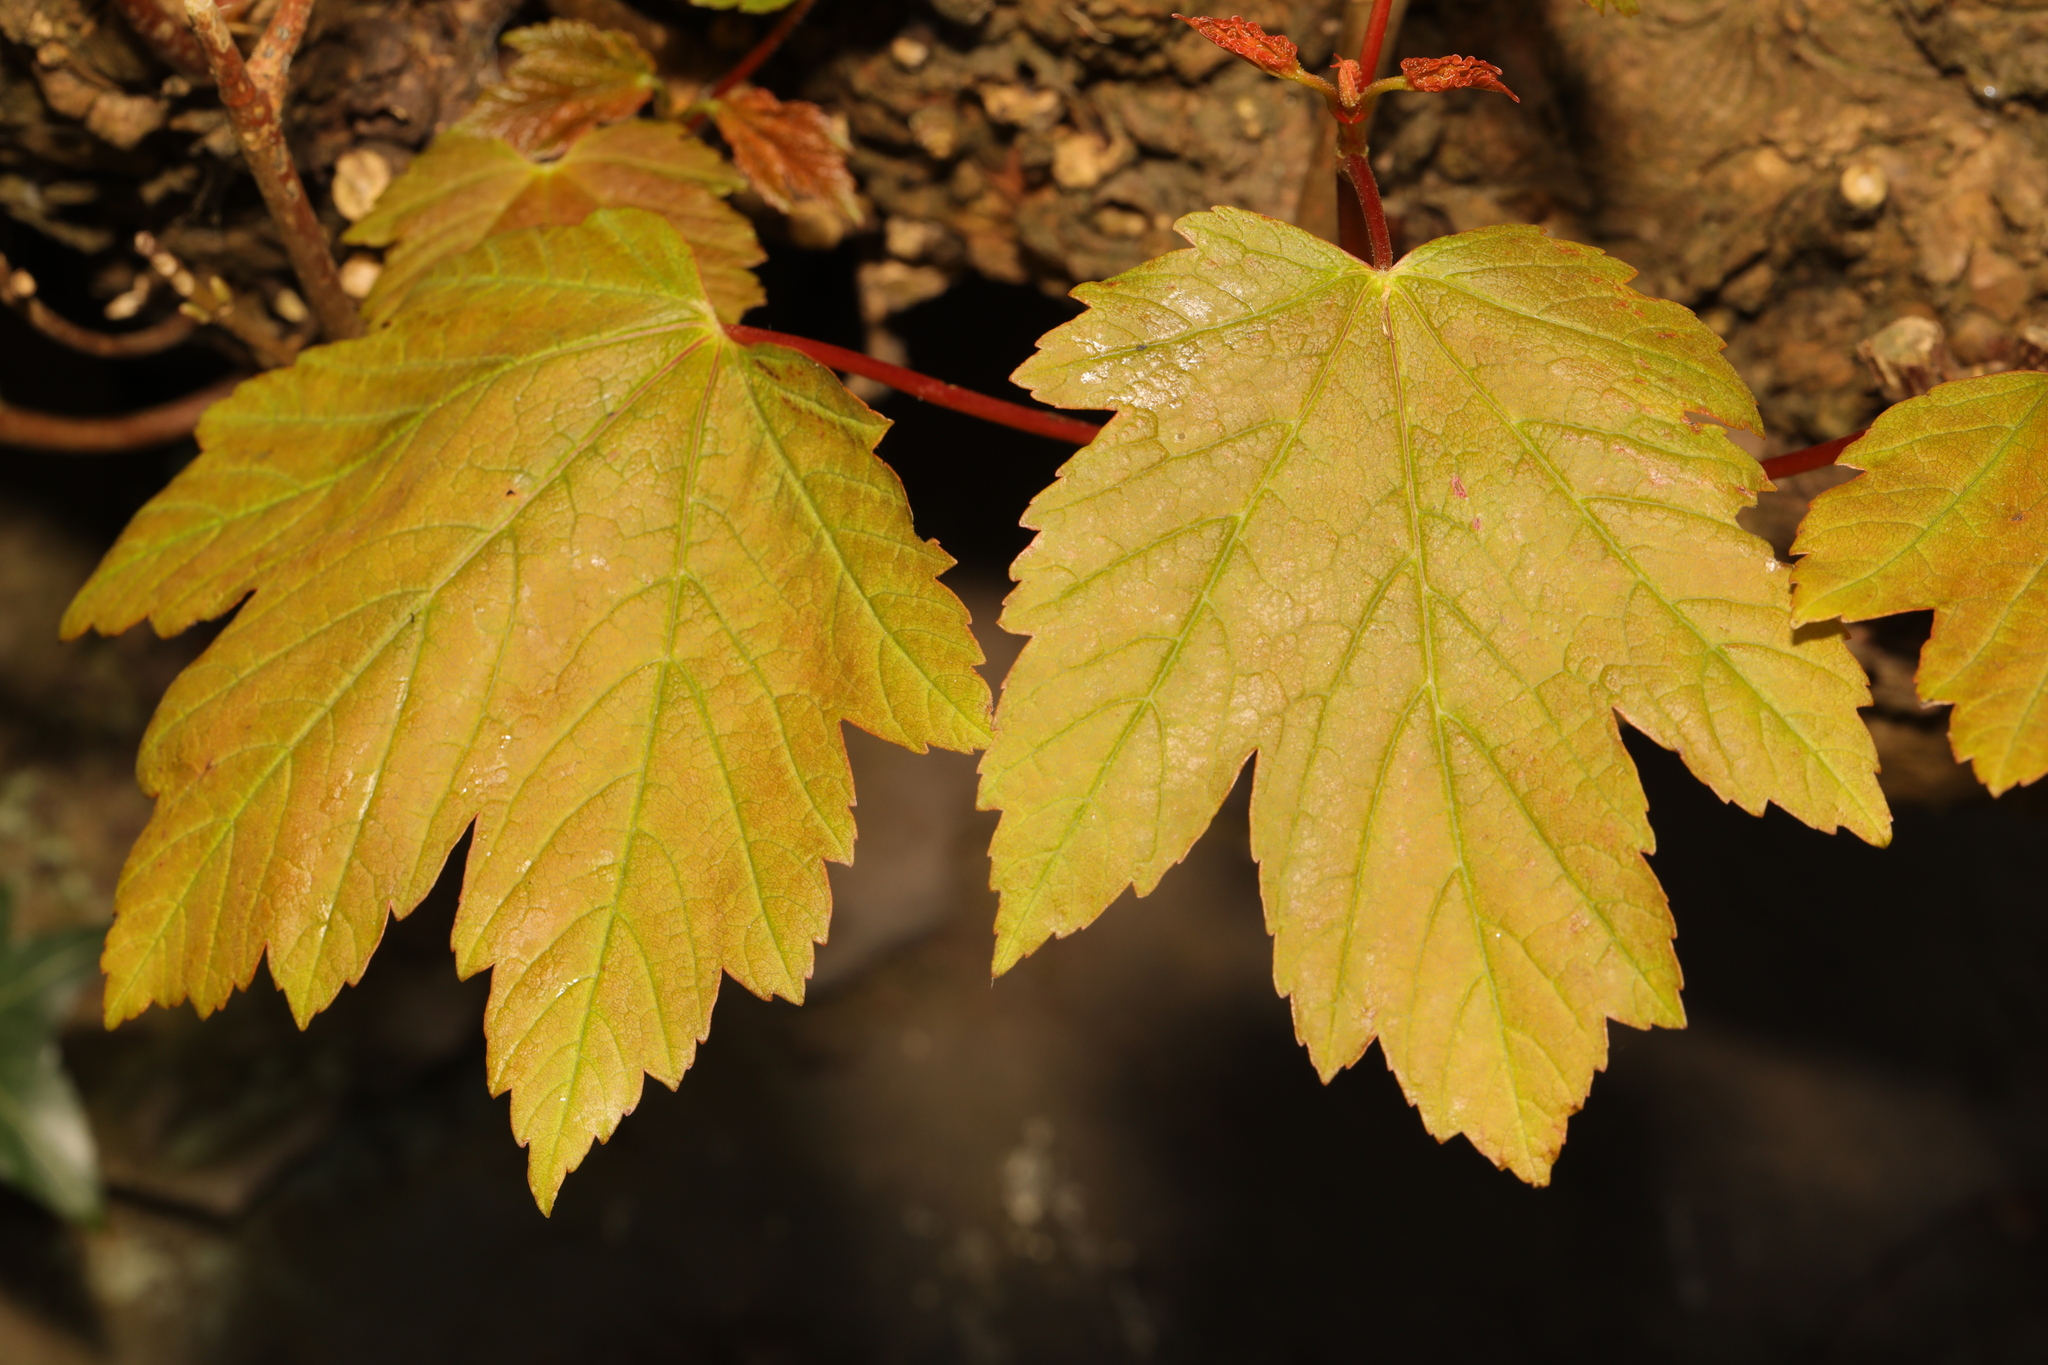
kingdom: Plantae
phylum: Tracheophyta
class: Magnoliopsida
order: Sapindales
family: Sapindaceae
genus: Acer
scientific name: Acer pseudoplatanus
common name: Sycamore
